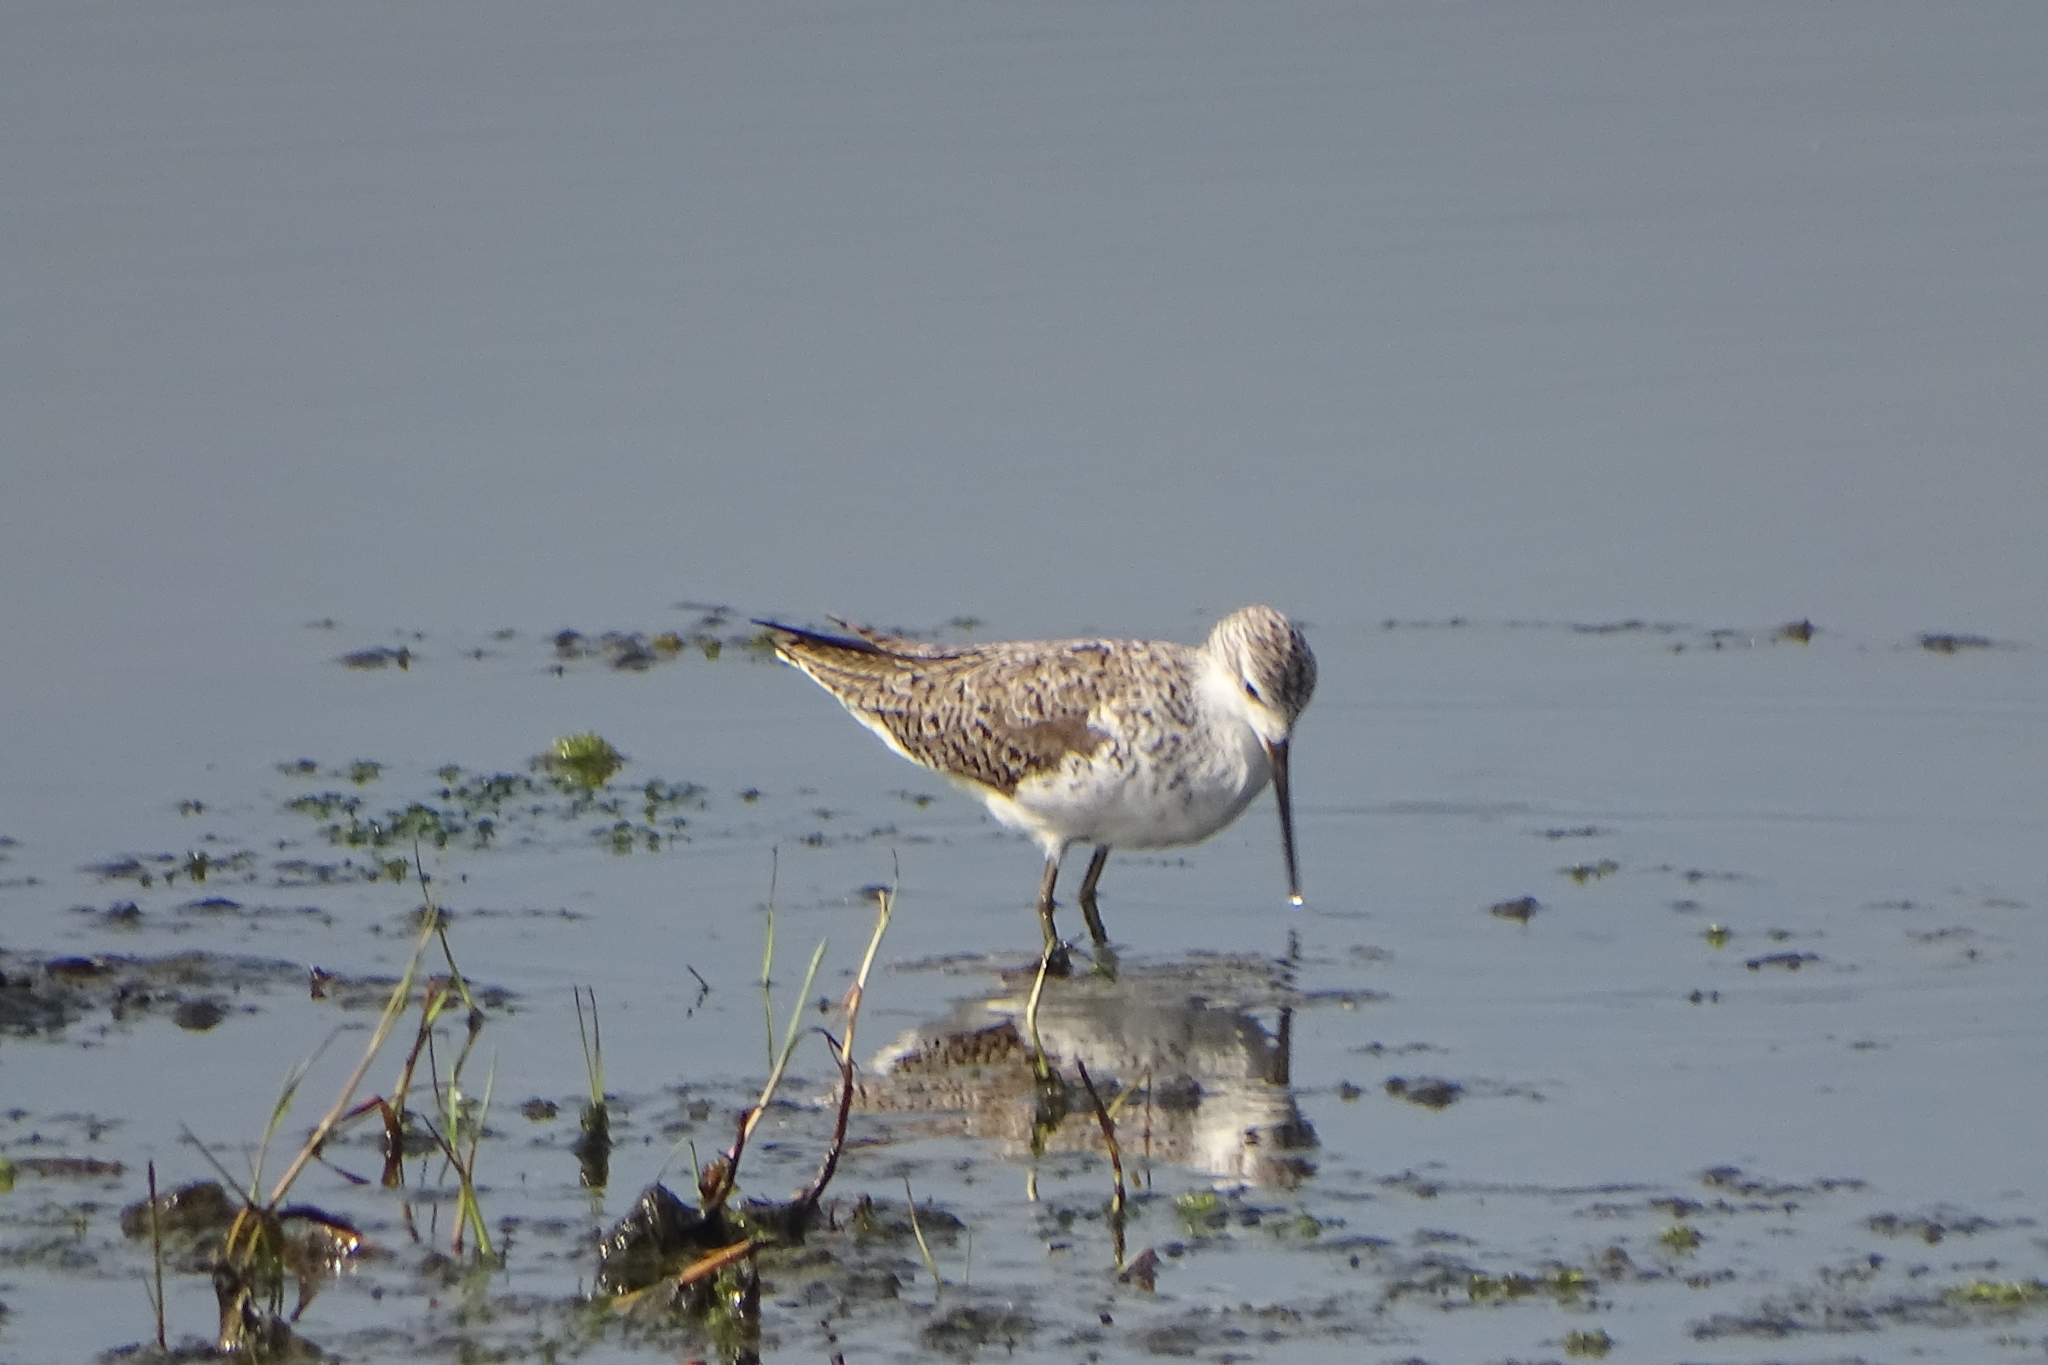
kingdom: Animalia
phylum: Chordata
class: Aves
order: Charadriiformes
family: Scolopacidae
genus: Tringa
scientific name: Tringa stagnatilis
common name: Marsh sandpiper
